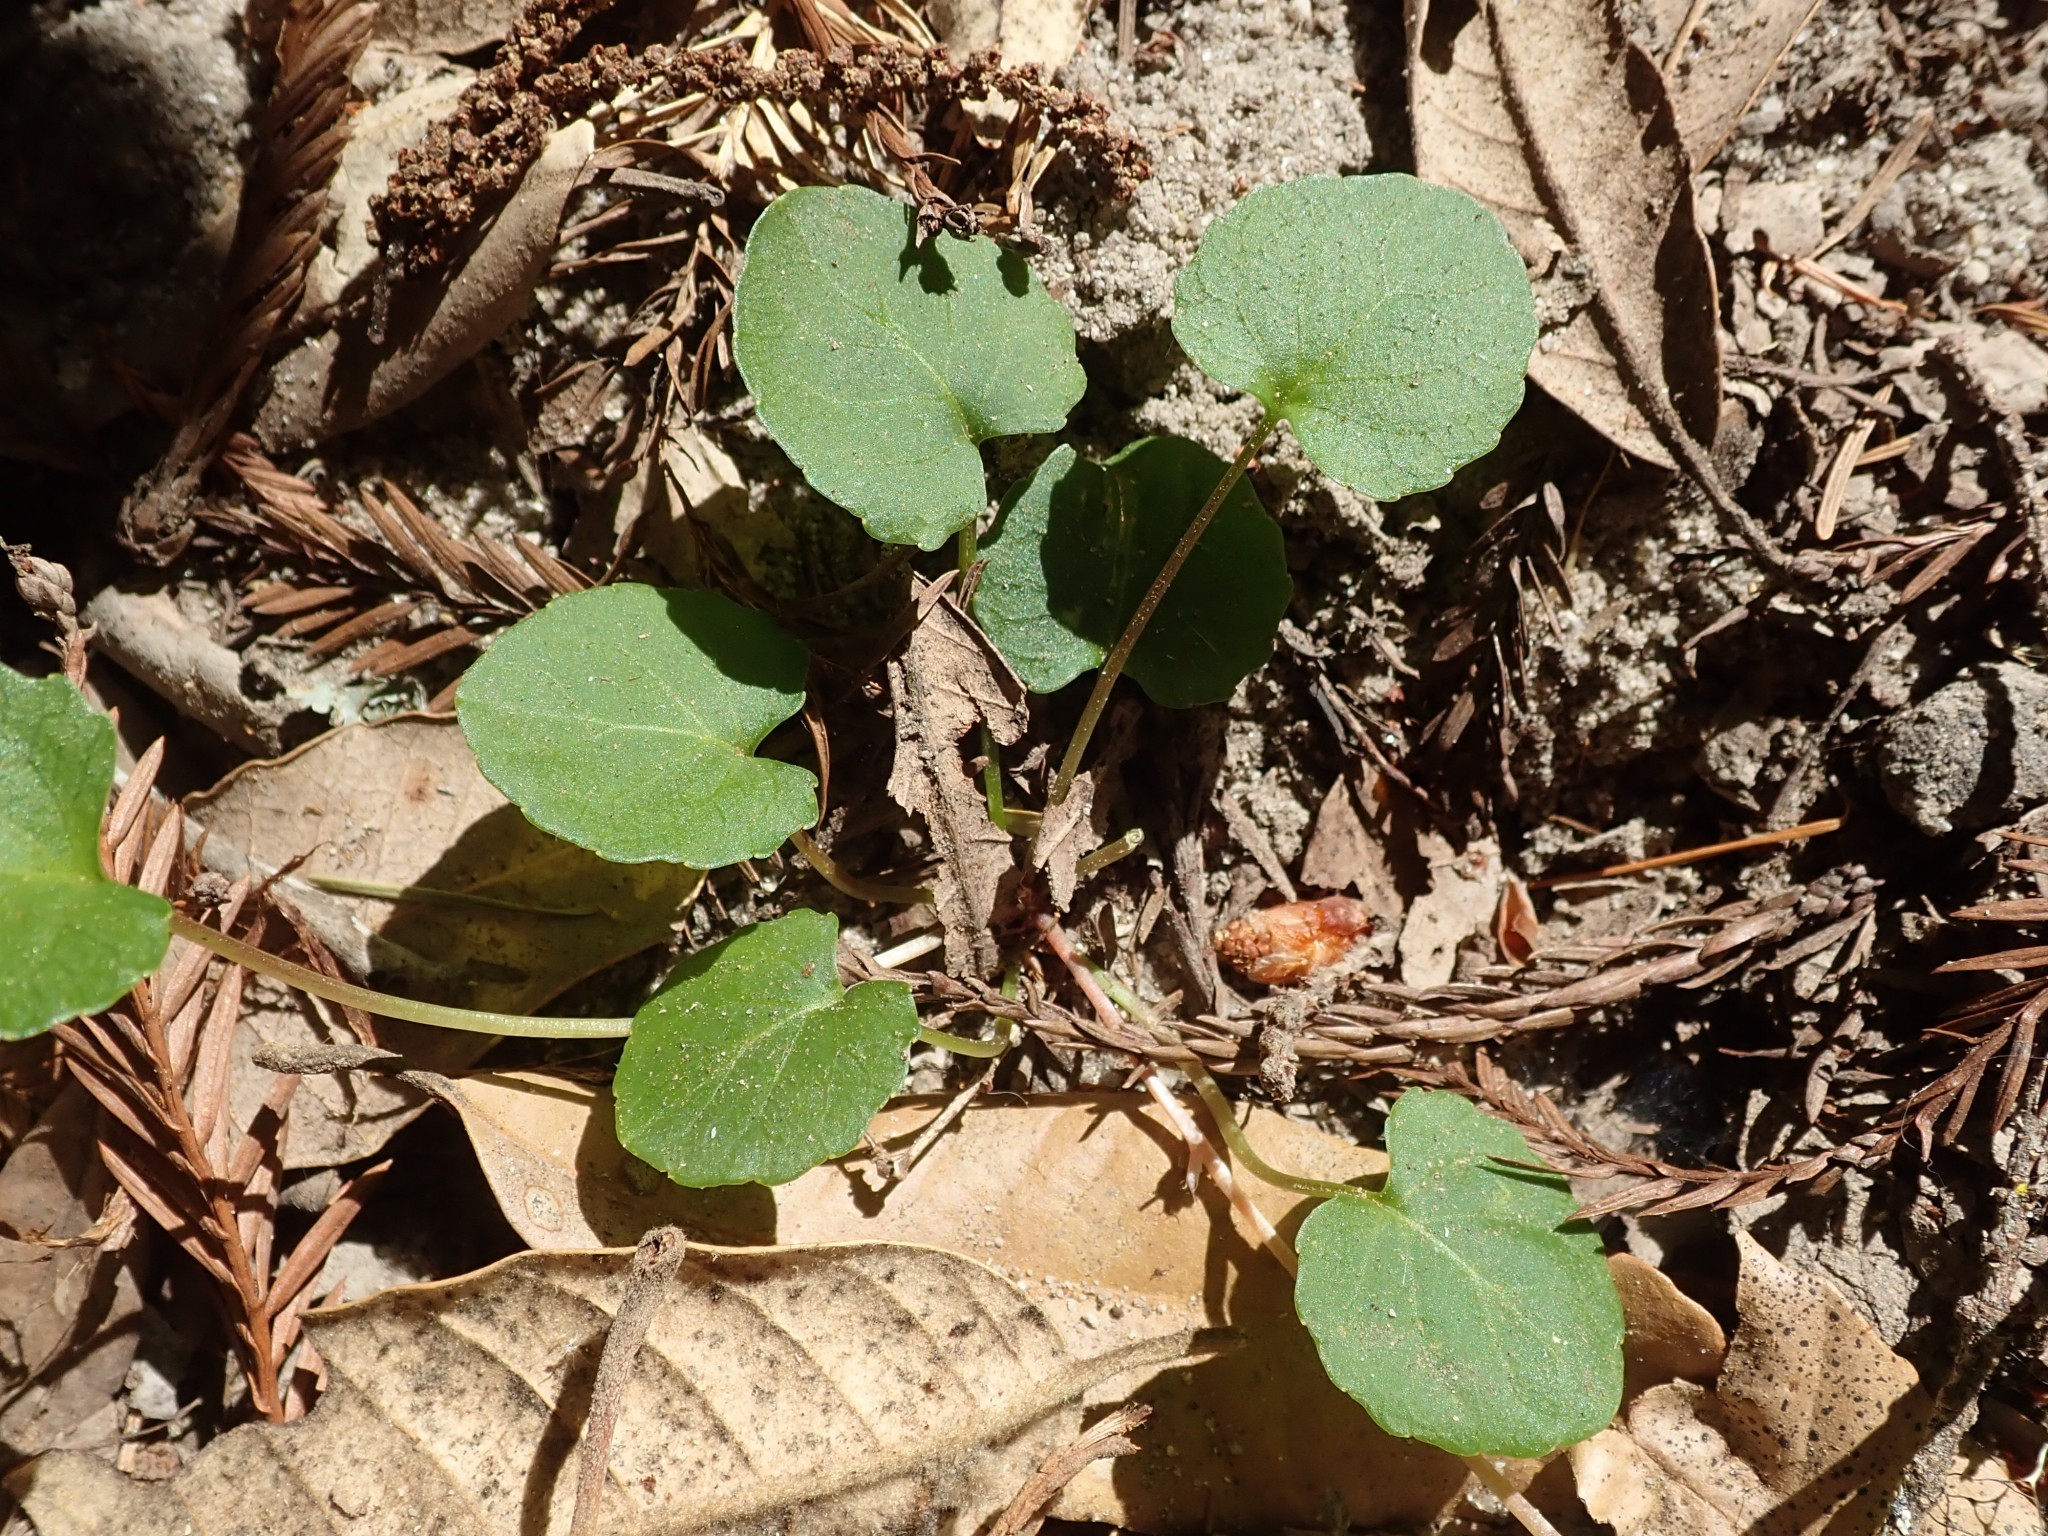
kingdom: Plantae
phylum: Tracheophyta
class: Magnoliopsida
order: Malpighiales
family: Violaceae
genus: Viola
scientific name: Viola sempervirens
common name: Evergreen violet
